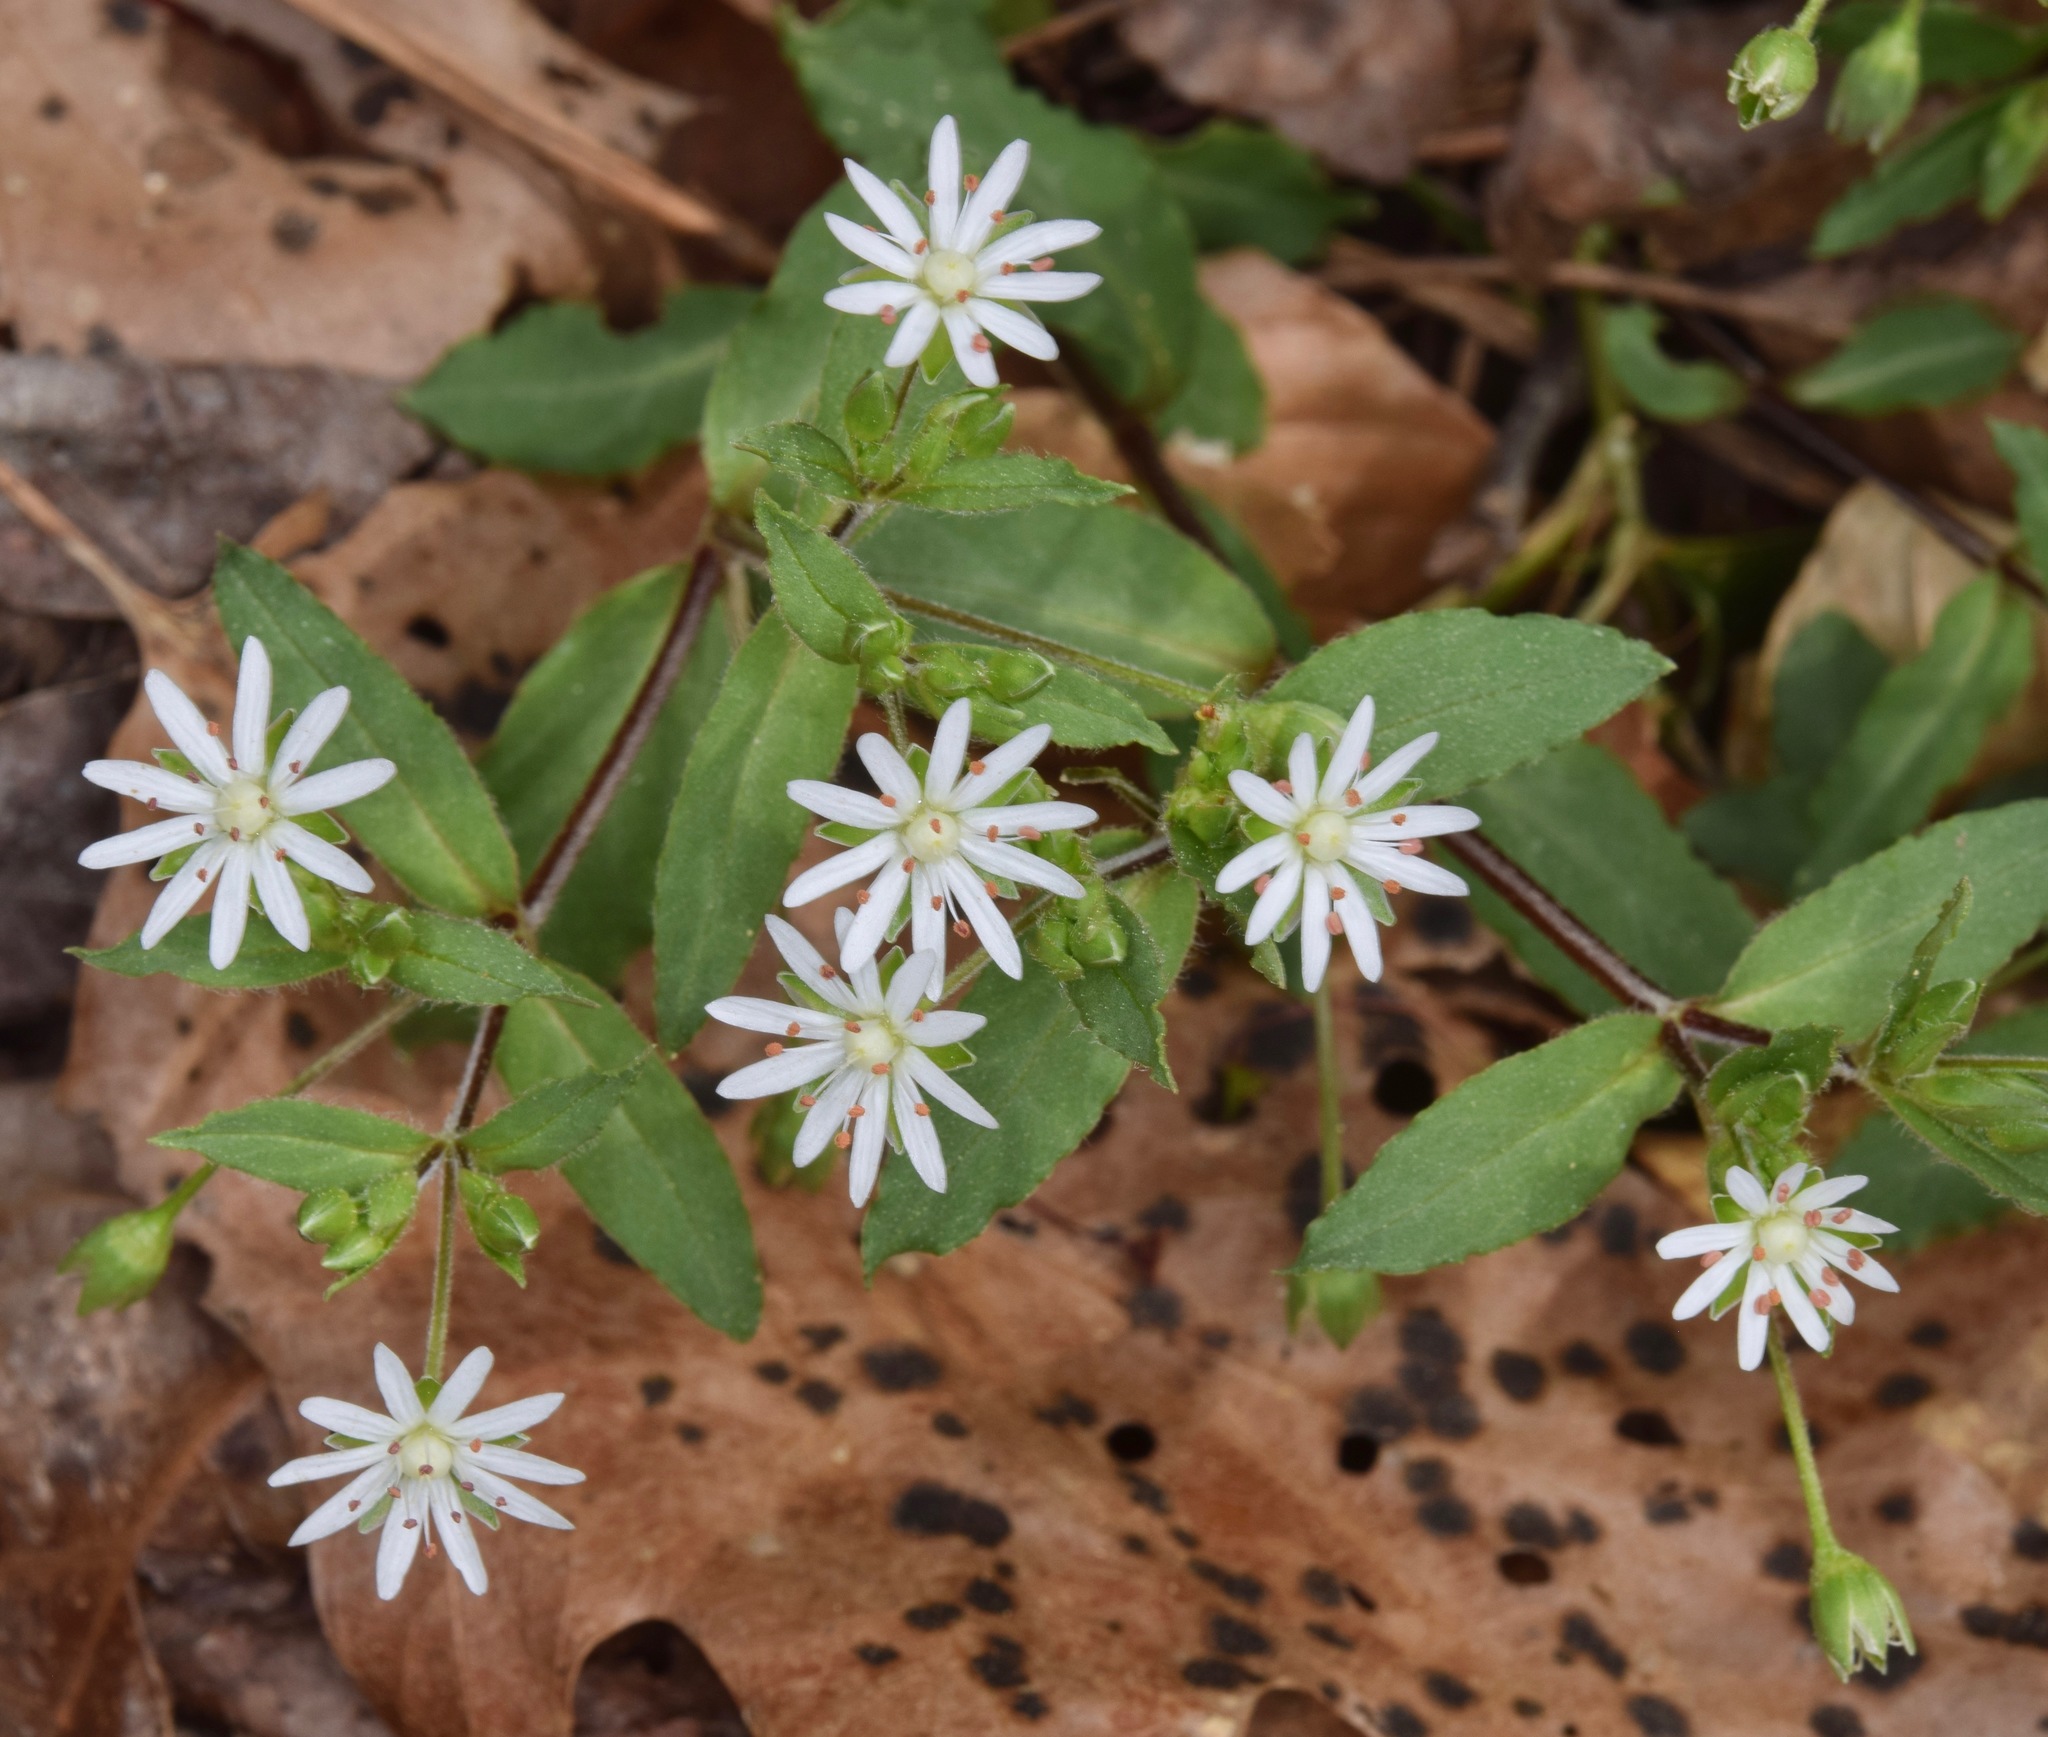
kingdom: Plantae
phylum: Tracheophyta
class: Magnoliopsida
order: Caryophyllales
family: Caryophyllaceae
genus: Stellaria
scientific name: Stellaria pubera
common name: Star chickweed
